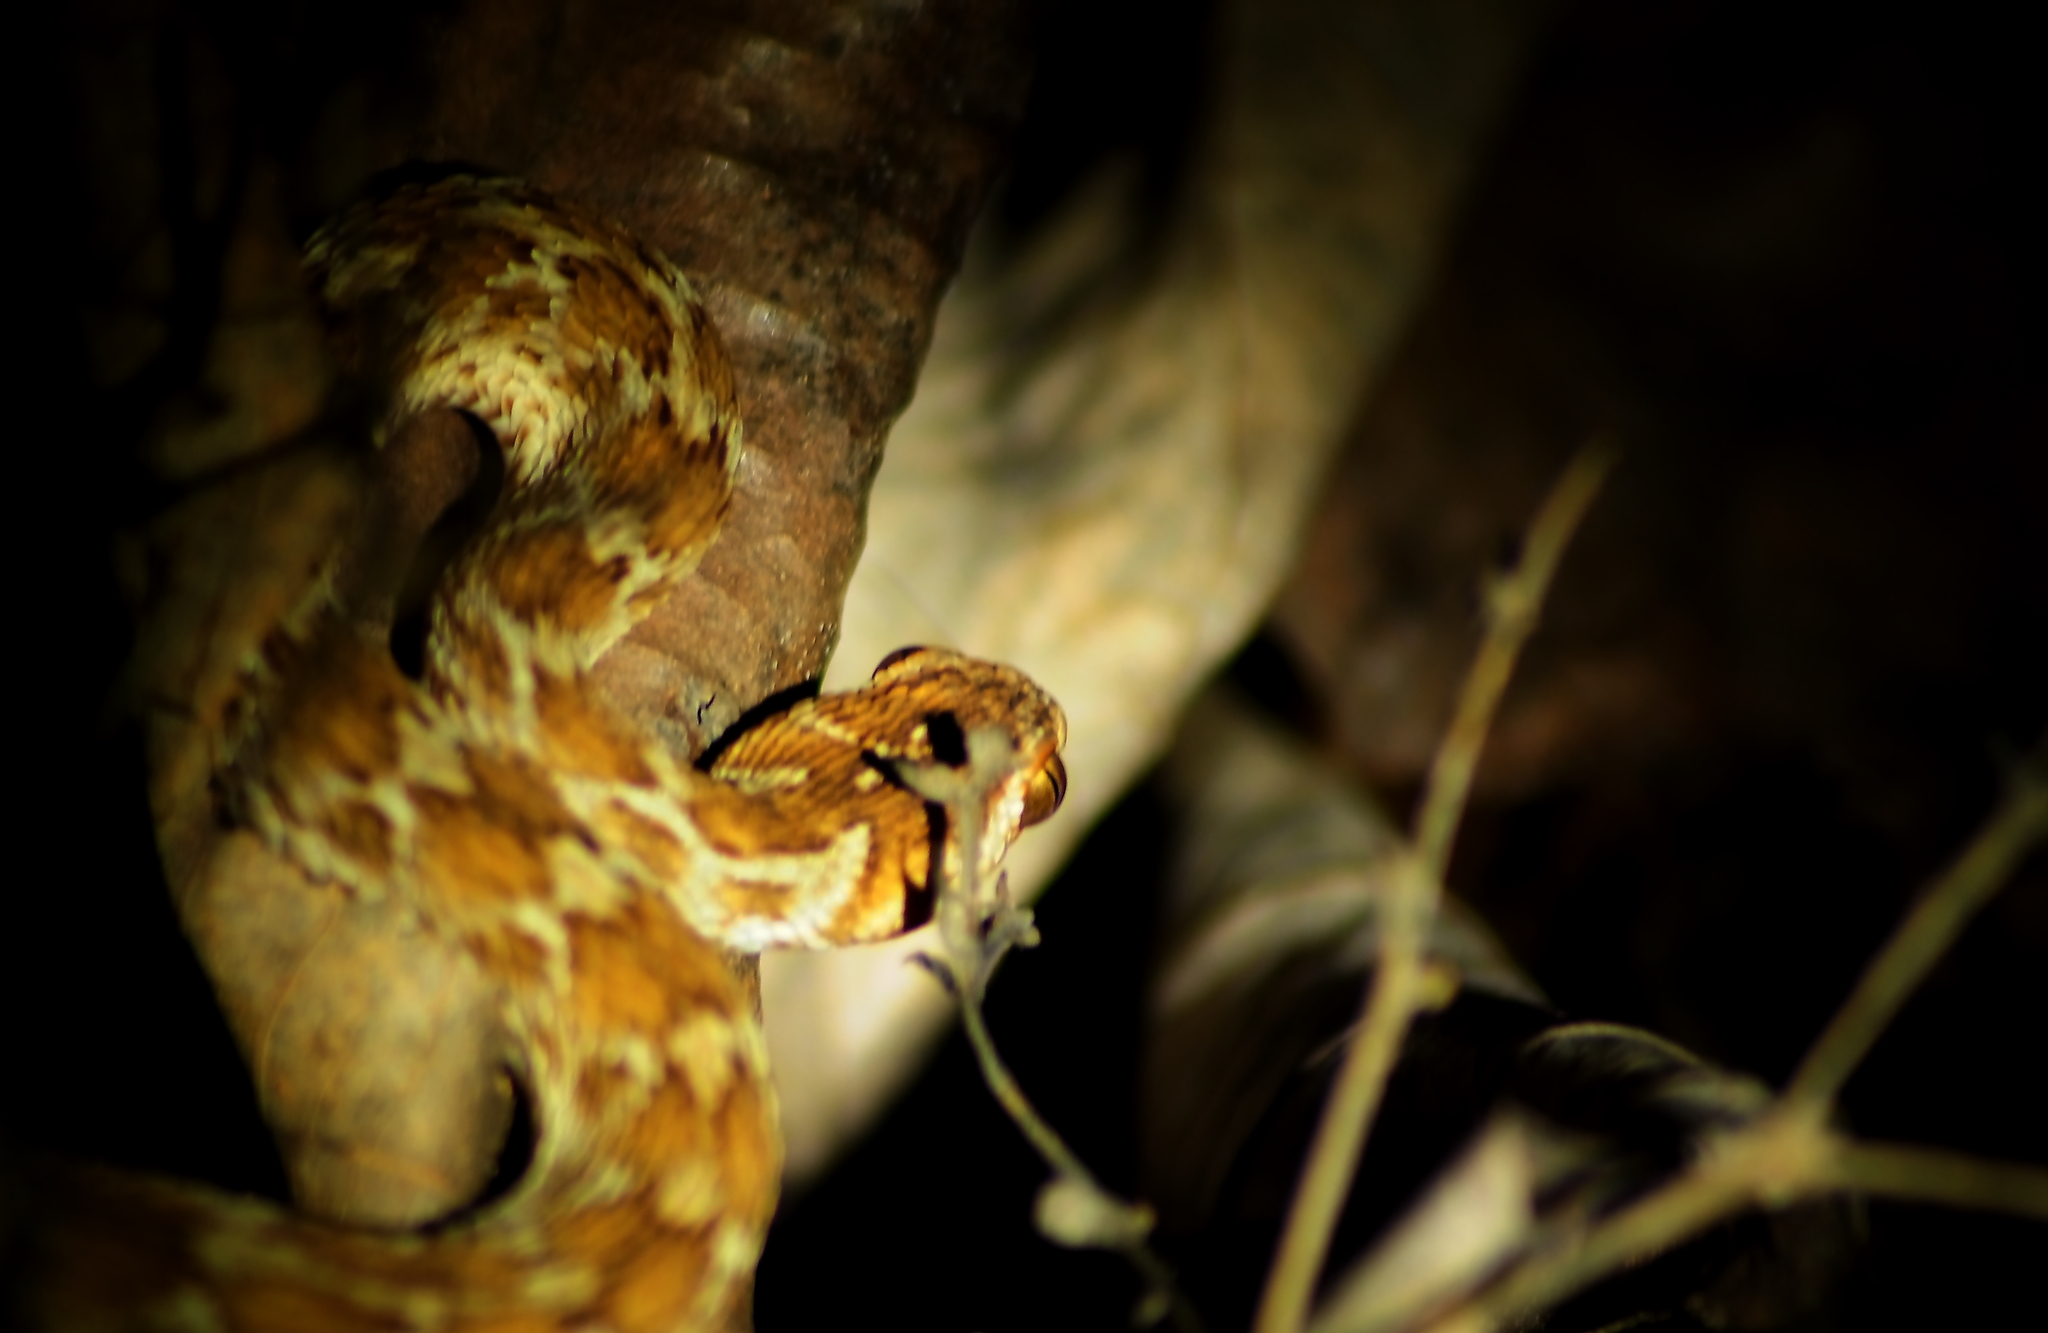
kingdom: Animalia
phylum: Chordata
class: Squamata
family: Viperidae
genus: Echis
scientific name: Echis carinatus
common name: Saw-scaled viper
